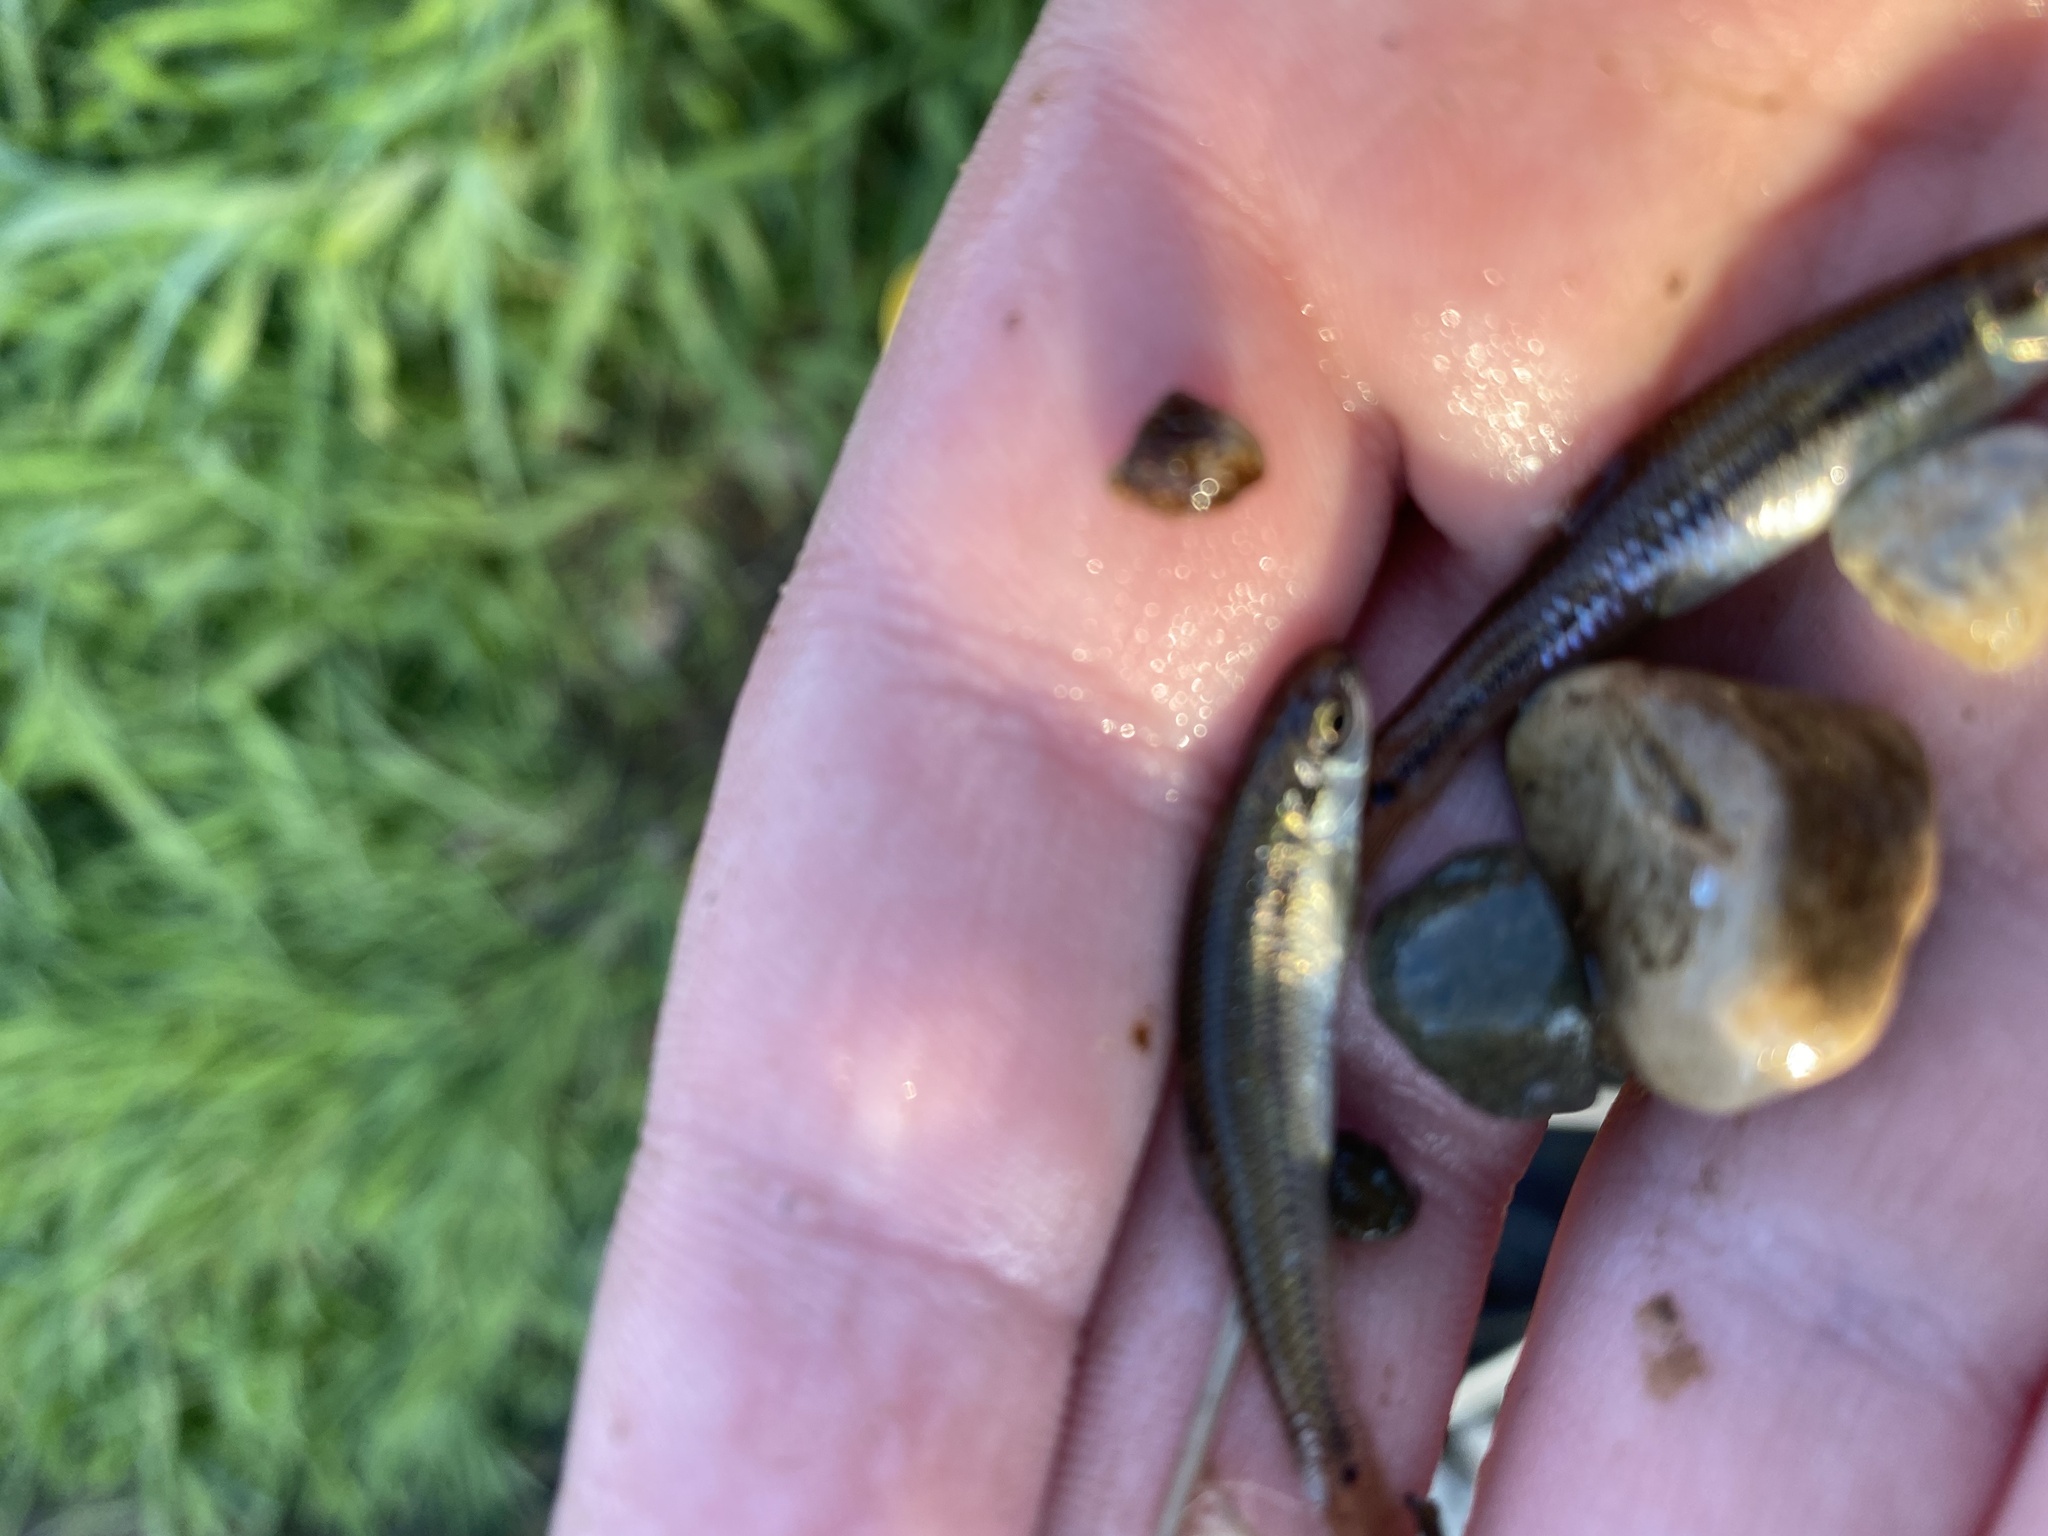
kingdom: Animalia
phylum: Chordata
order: Cypriniformes
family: Cyprinidae
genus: Pimephales
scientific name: Pimephales notatus
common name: Bluntnose minnow
